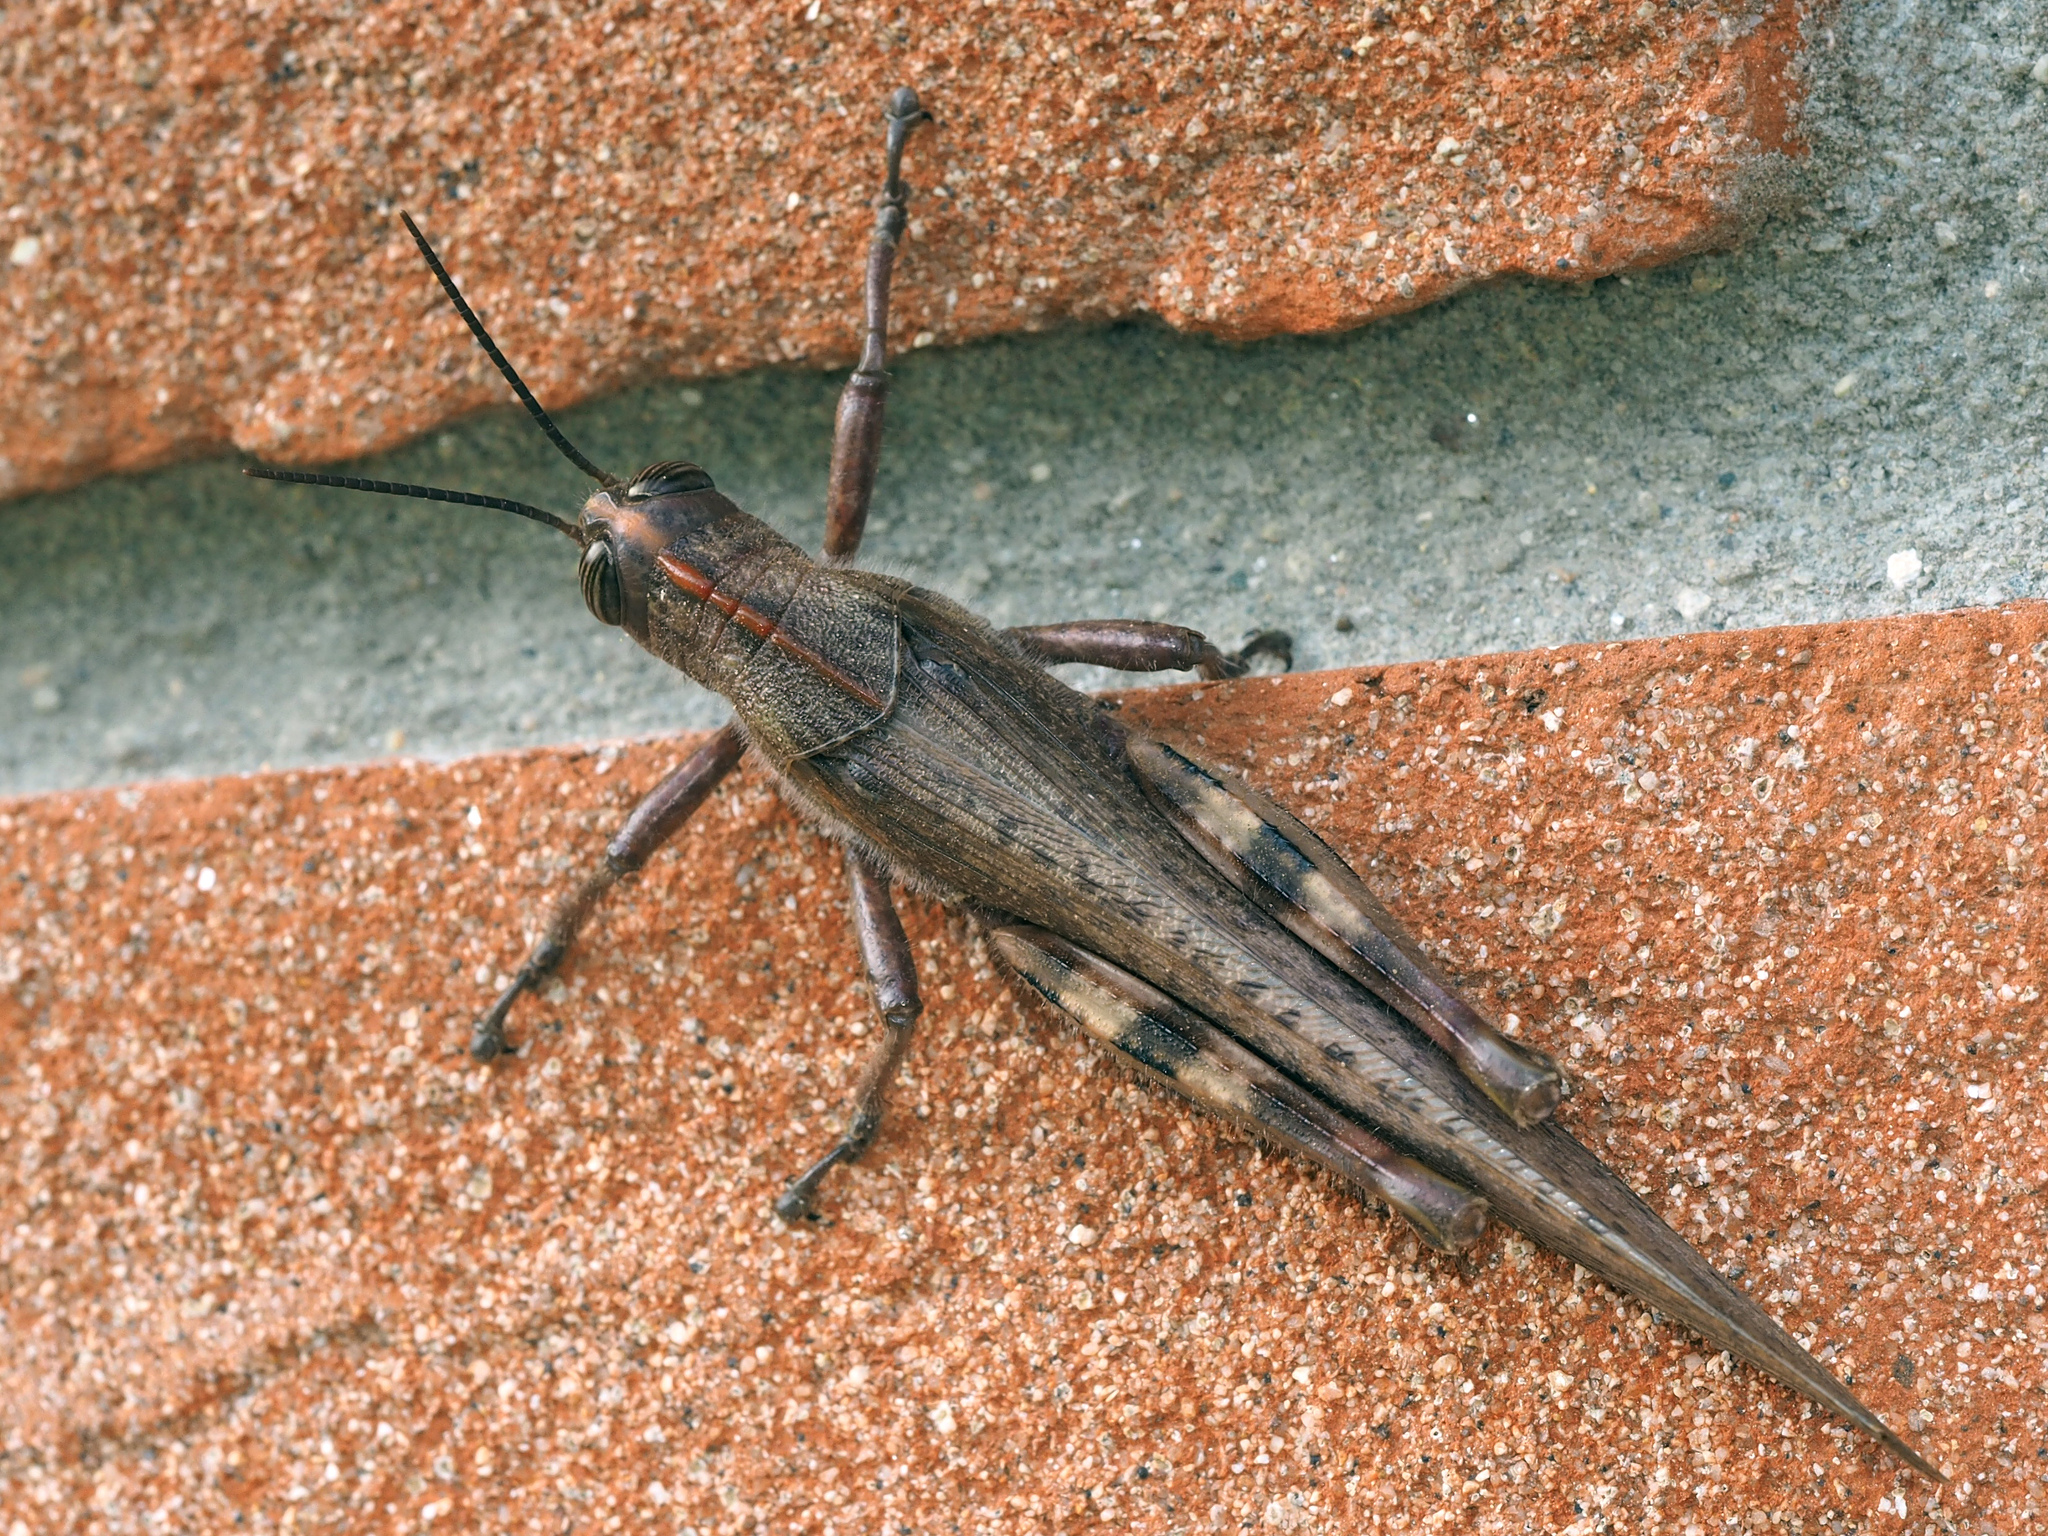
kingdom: Animalia
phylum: Arthropoda
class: Insecta
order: Orthoptera
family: Acrididae
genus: Anacridium
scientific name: Anacridium aegyptium
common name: Egyptian grasshopper
